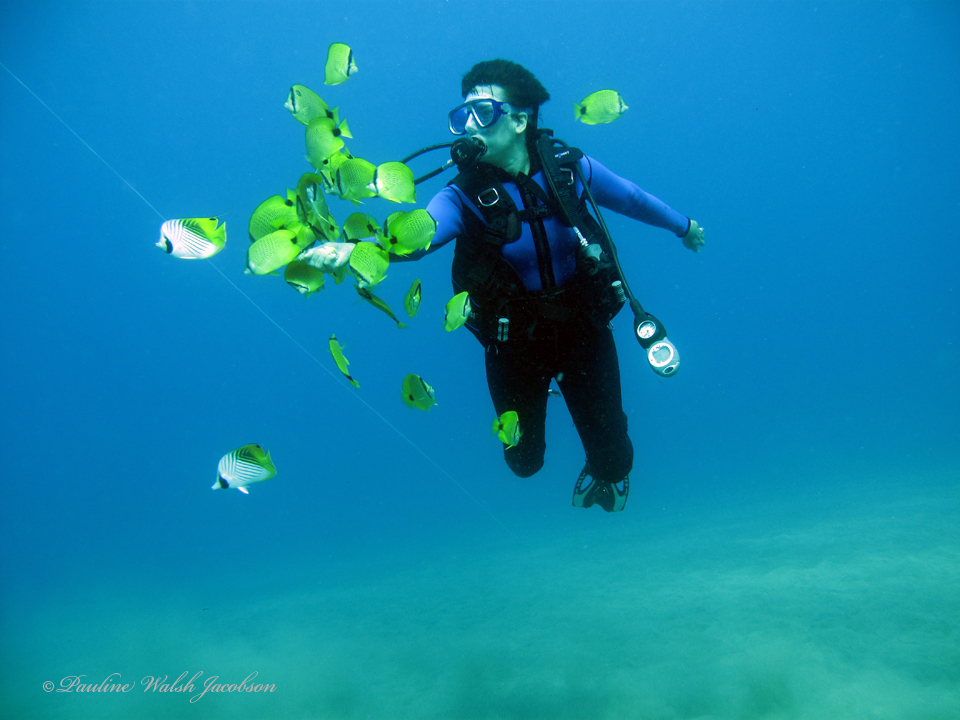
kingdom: Animalia
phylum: Chordata
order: Perciformes
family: Chaetodontidae
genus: Chaetodon
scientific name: Chaetodon auriga
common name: Threadfin butterflyfish
